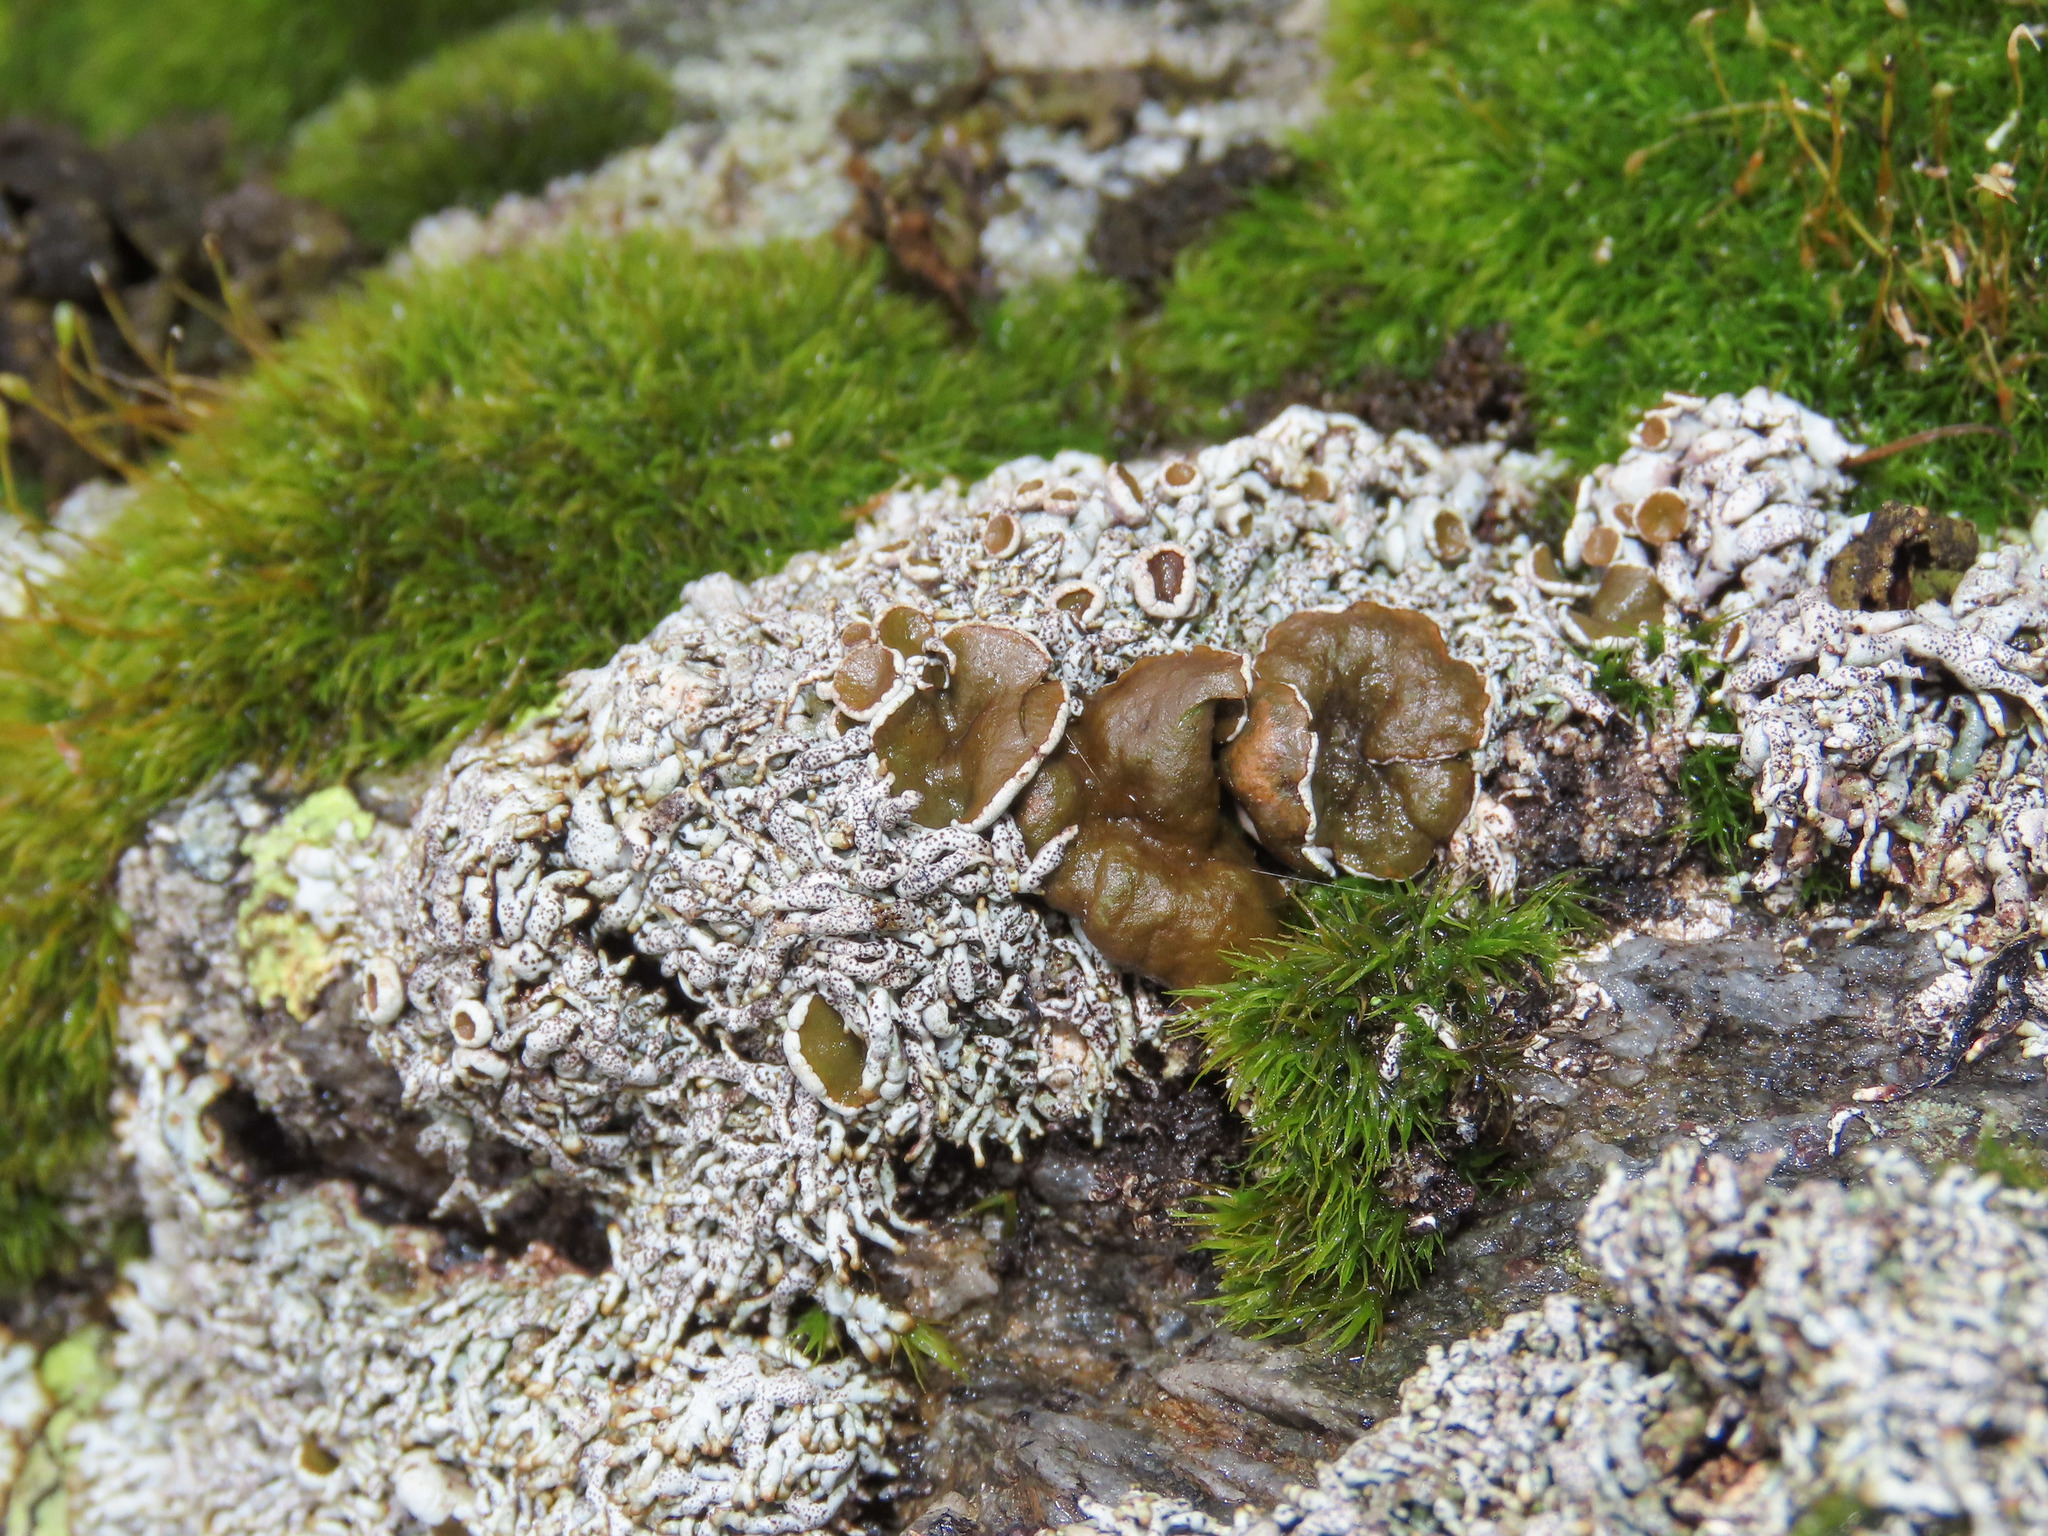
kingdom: Fungi
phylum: Ascomycota
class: Lecanoromycetes
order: Lecanorales
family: Parmeliaceae
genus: Brodoa
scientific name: Brodoa intestiniformis
